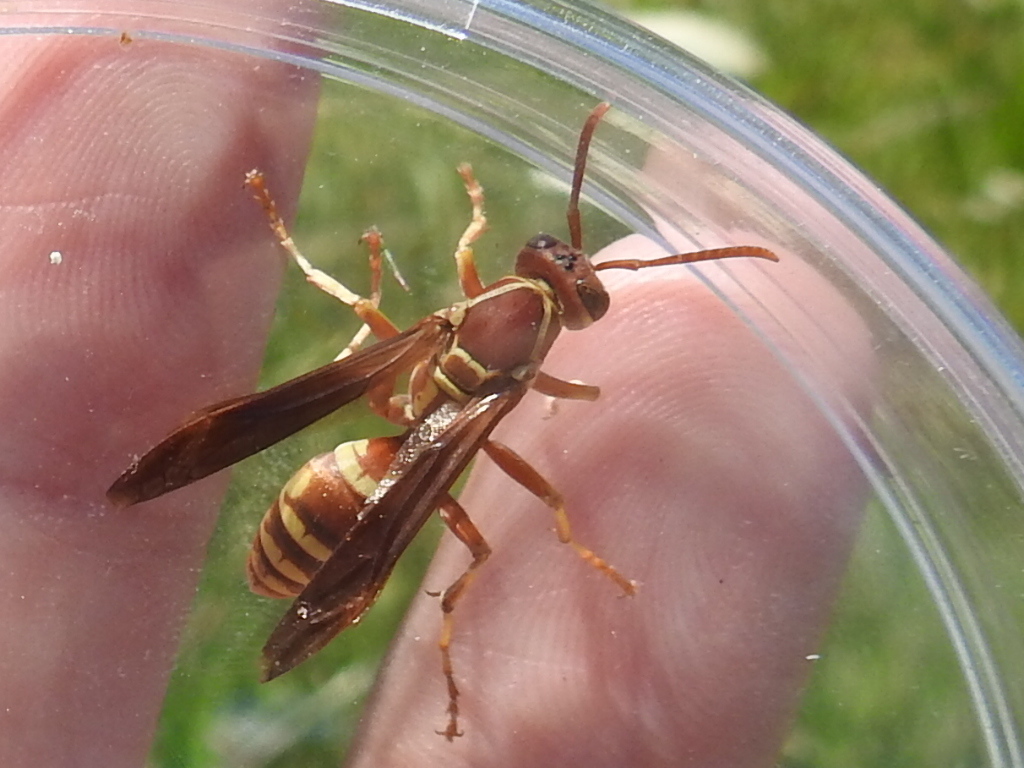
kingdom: Animalia
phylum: Arthropoda
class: Insecta
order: Hymenoptera
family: Eumenidae
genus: Polistes
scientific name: Polistes apachus
